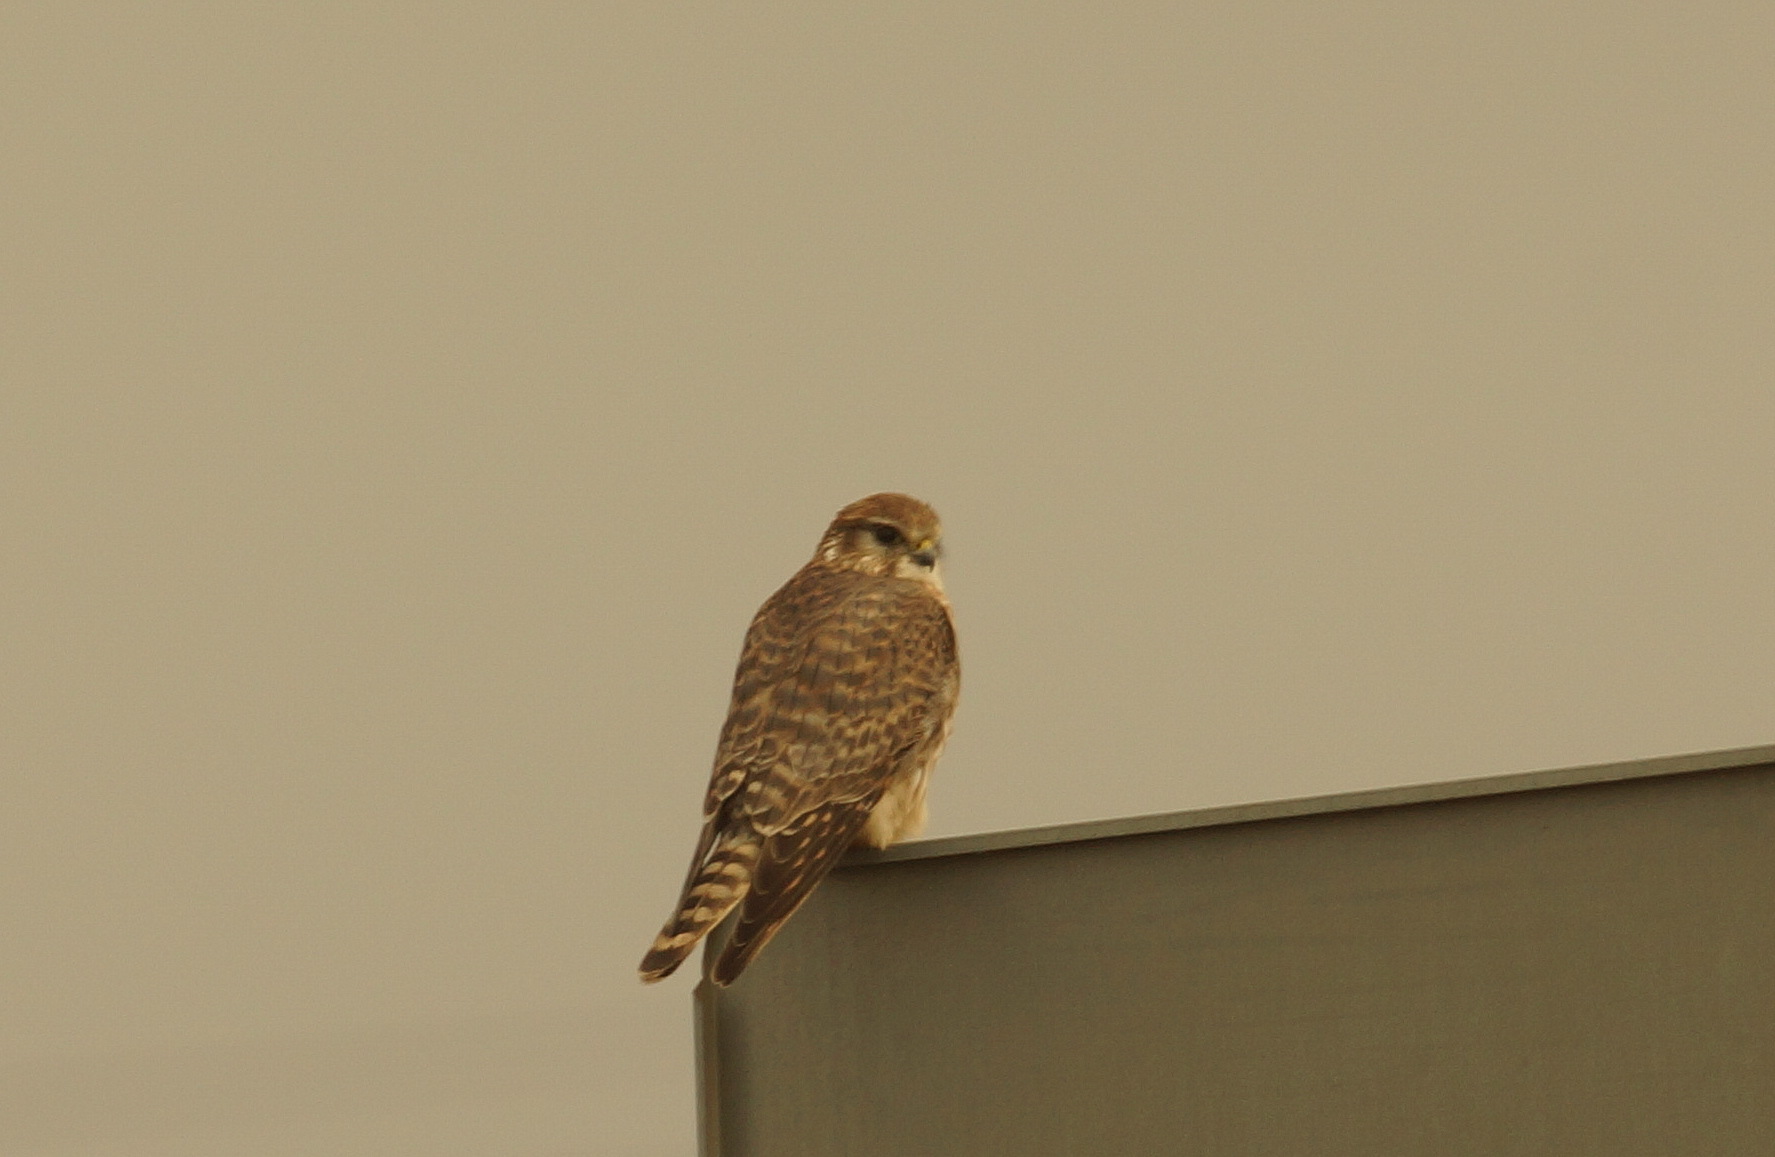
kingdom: Animalia
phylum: Chordata
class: Aves
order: Falconiformes
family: Falconidae
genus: Falco
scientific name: Falco columbarius
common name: Merlin
